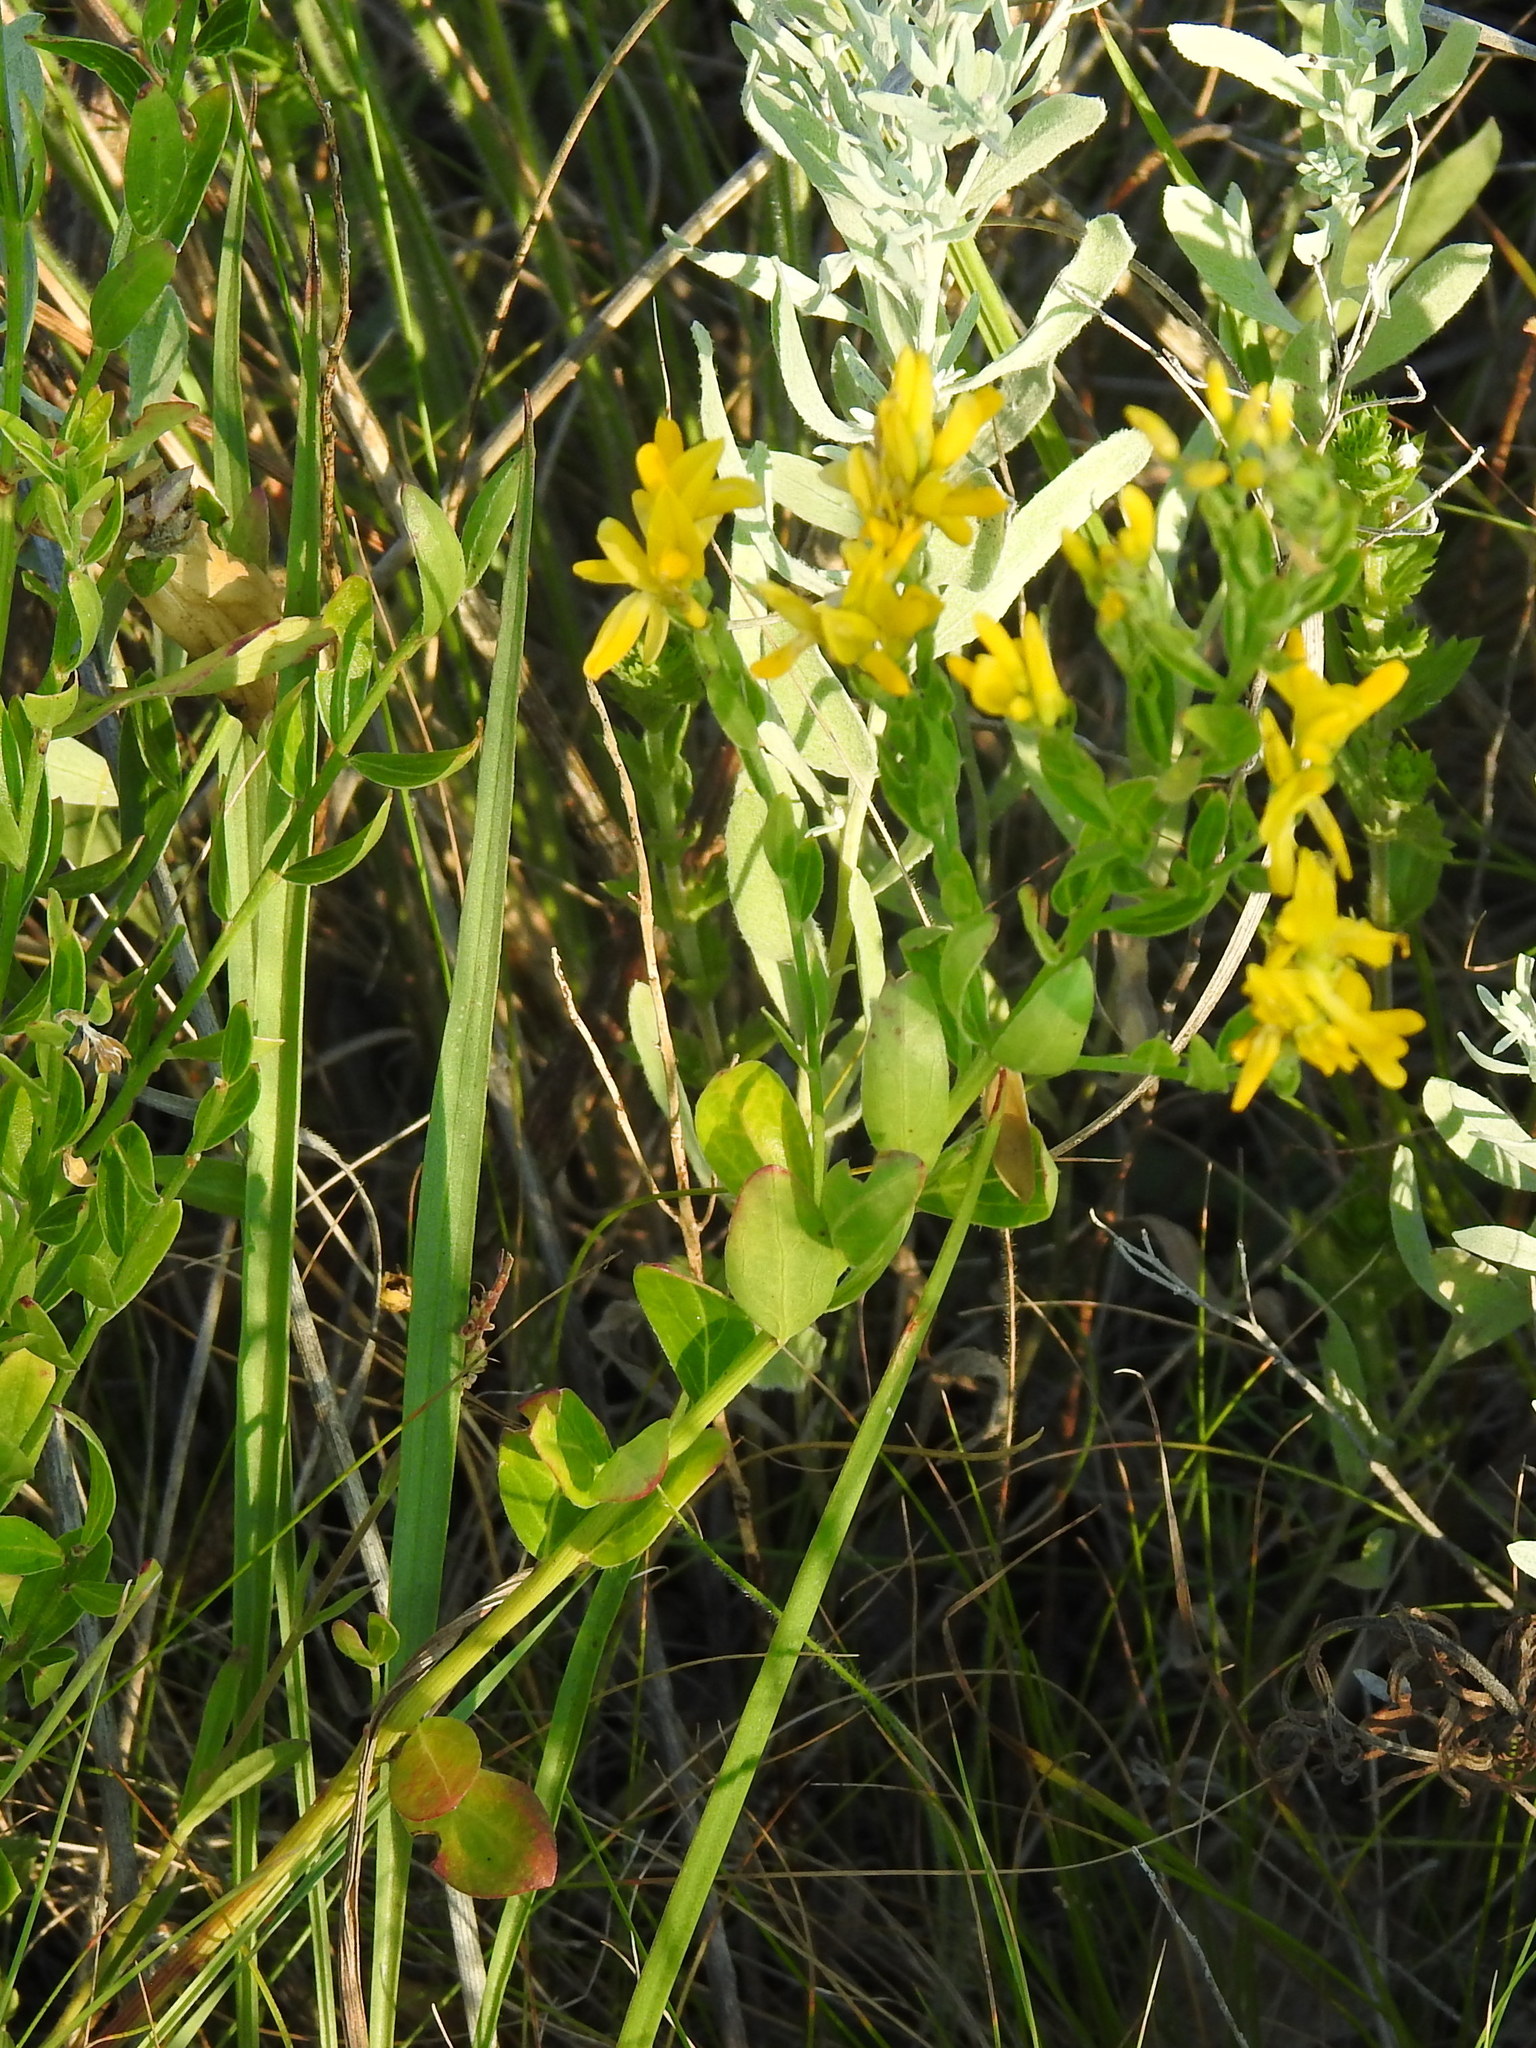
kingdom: Plantae
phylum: Tracheophyta
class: Magnoliopsida
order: Fabales
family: Fabaceae
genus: Genista
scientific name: Genista tinctoria
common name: Dyer's greenweed
